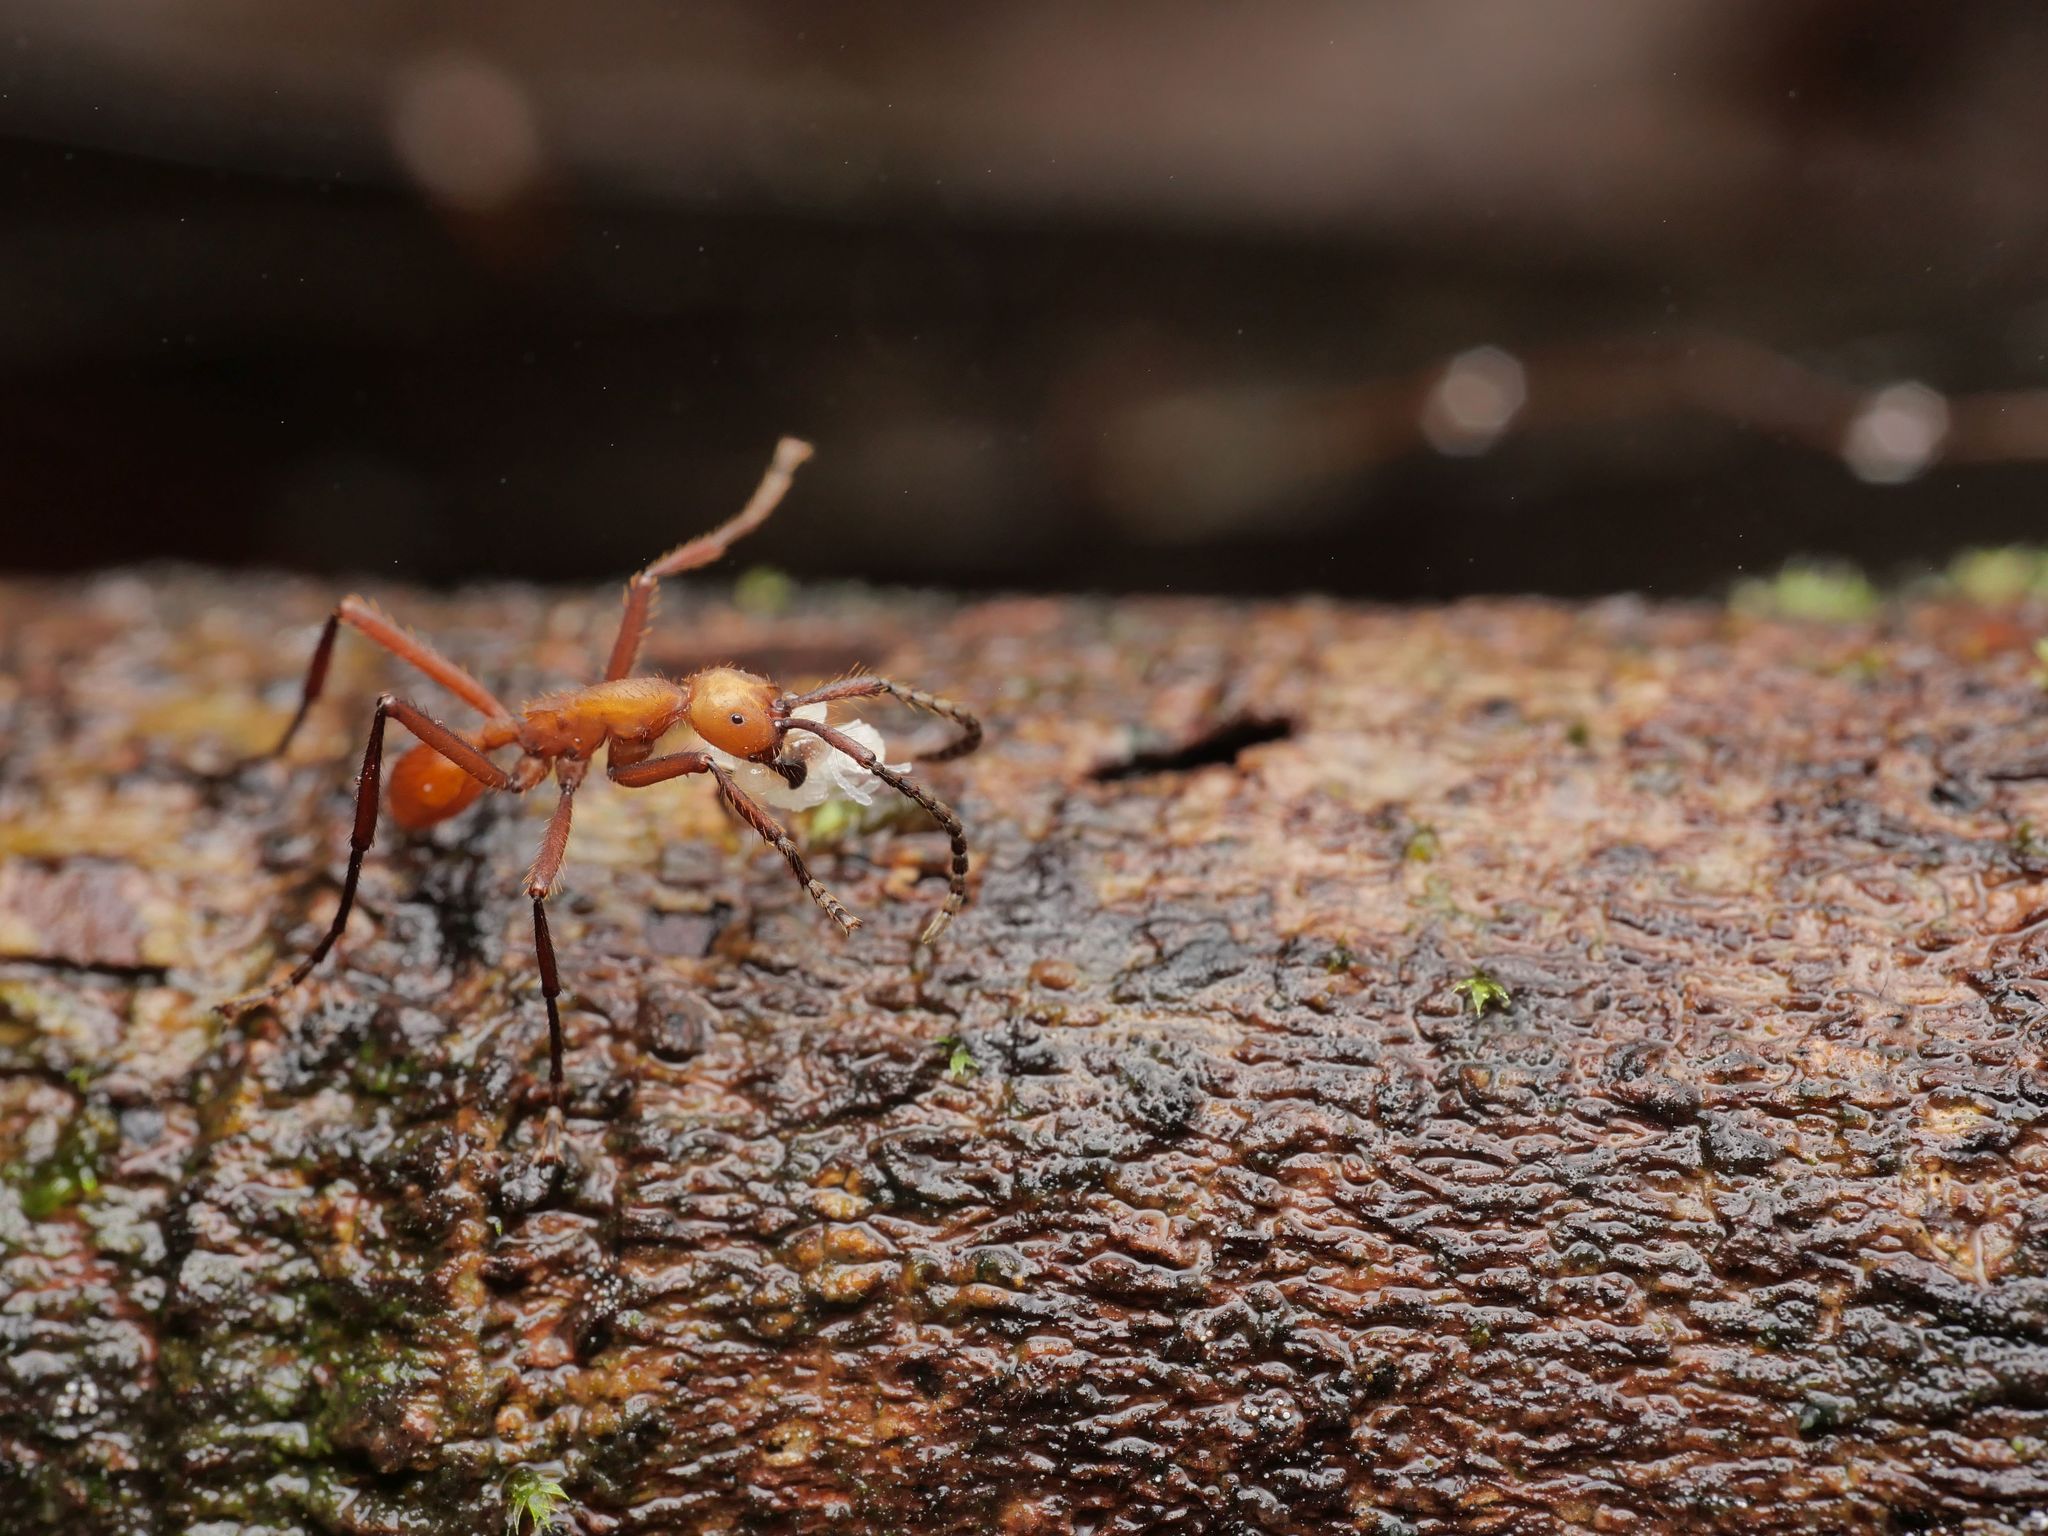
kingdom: Animalia
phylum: Arthropoda
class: Insecta
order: Hymenoptera
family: Formicidae
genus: Eciton
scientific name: Eciton hamatum
